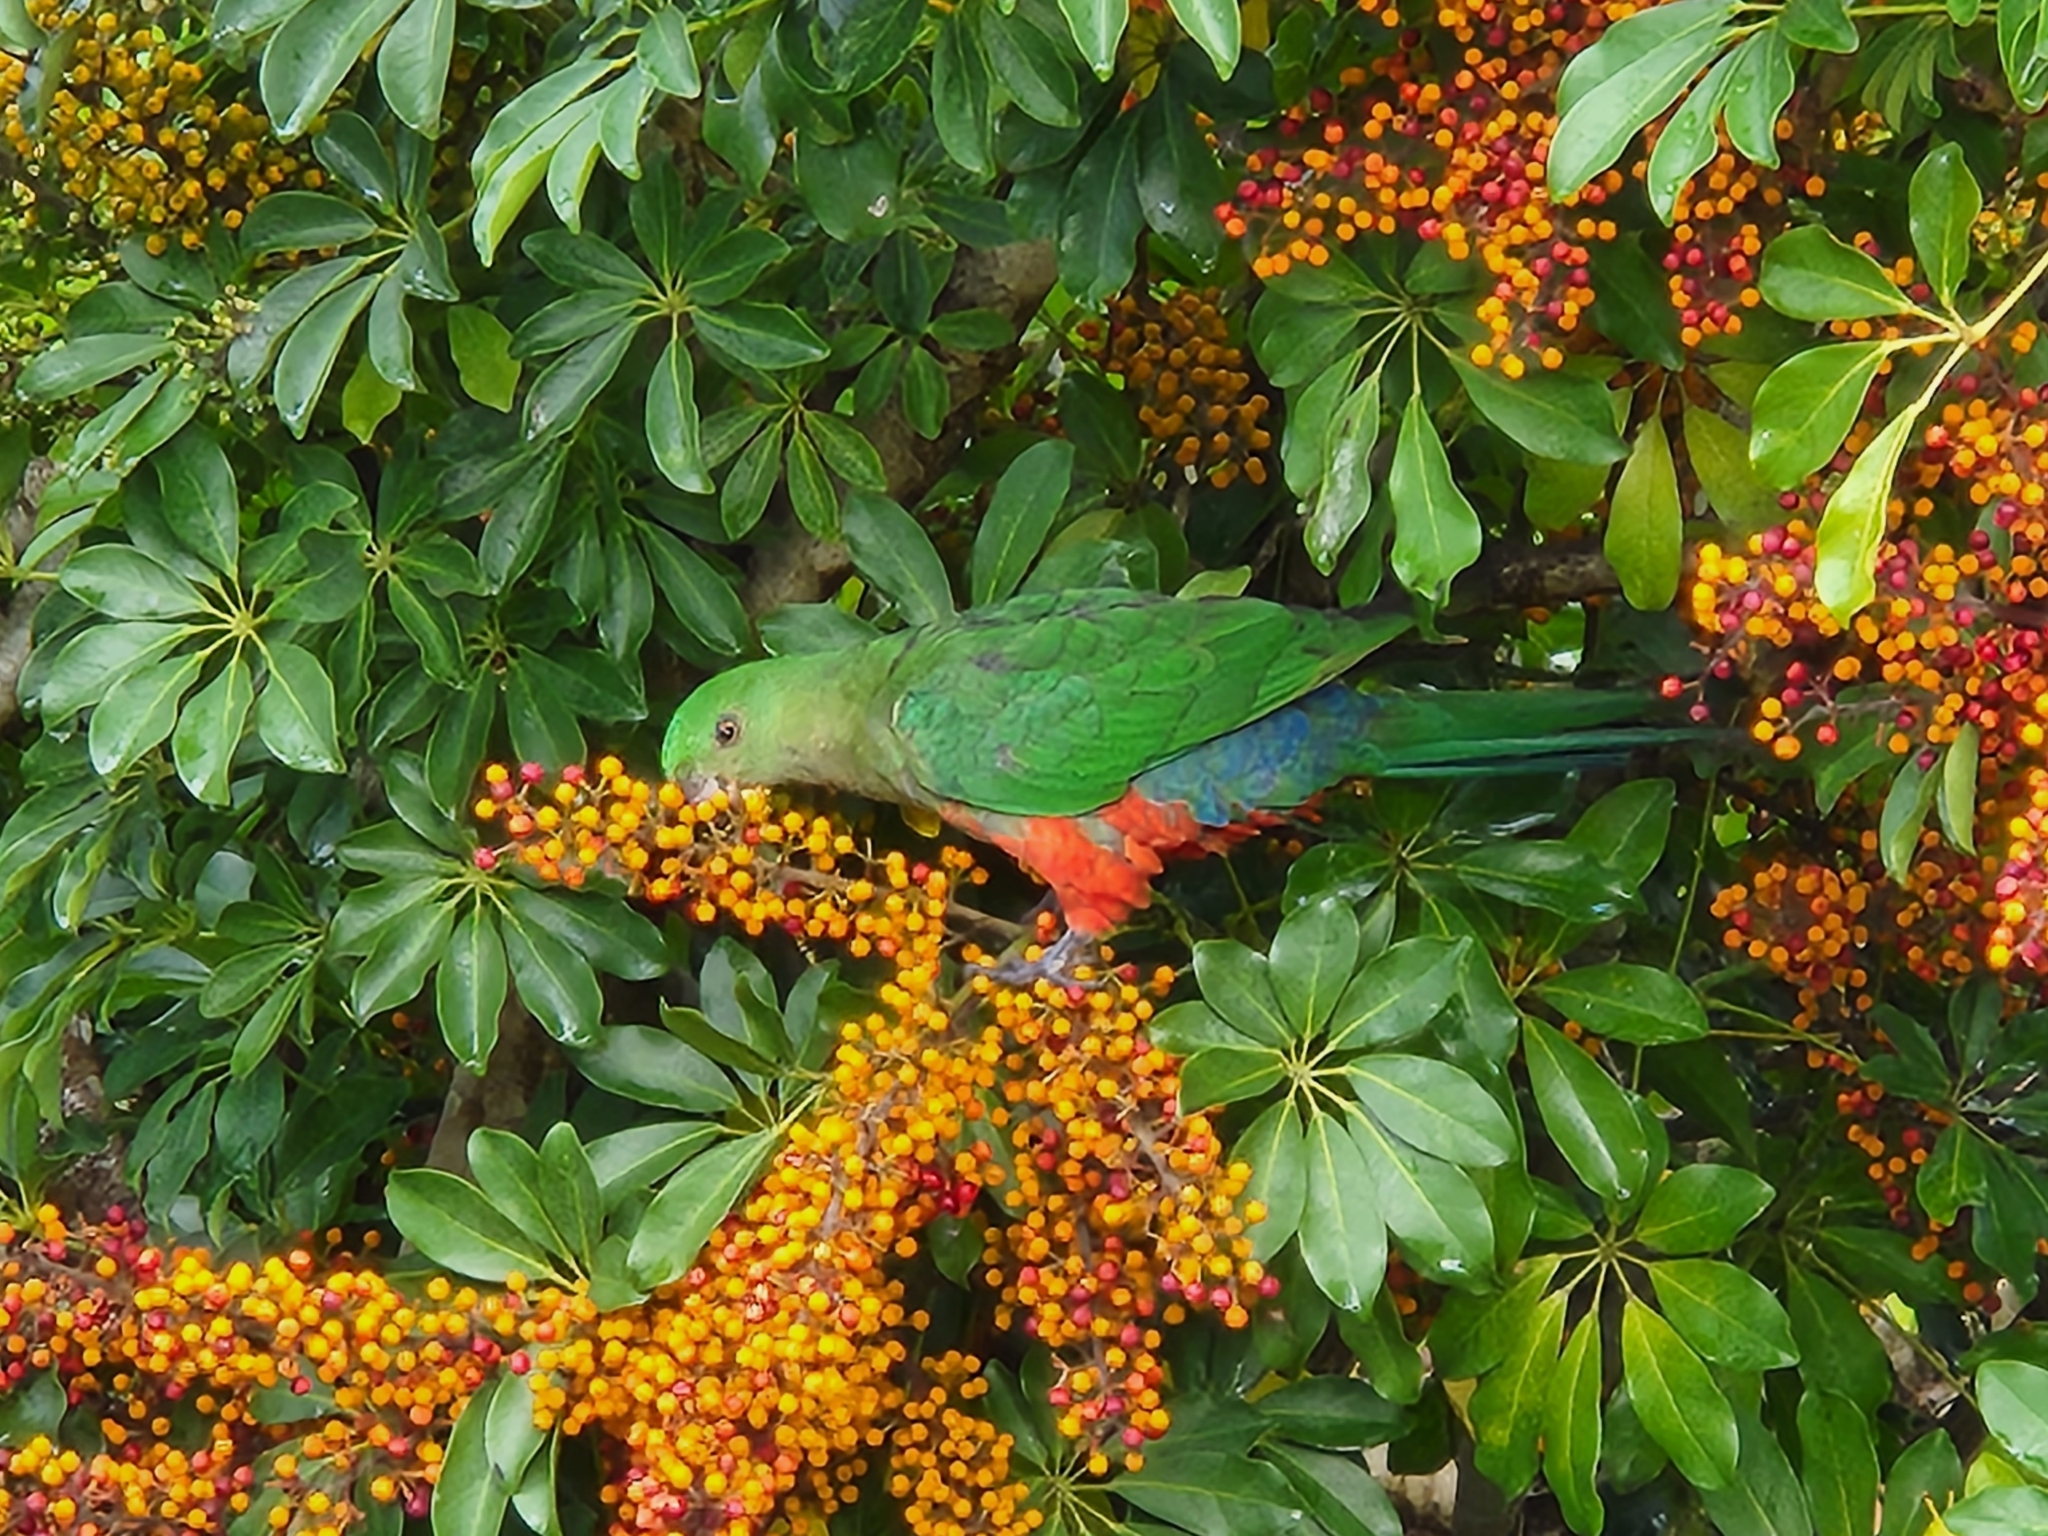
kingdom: Animalia
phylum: Chordata
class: Aves
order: Psittaciformes
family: Psittacidae
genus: Alisterus
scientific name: Alisterus scapularis
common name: Australian king parrot
